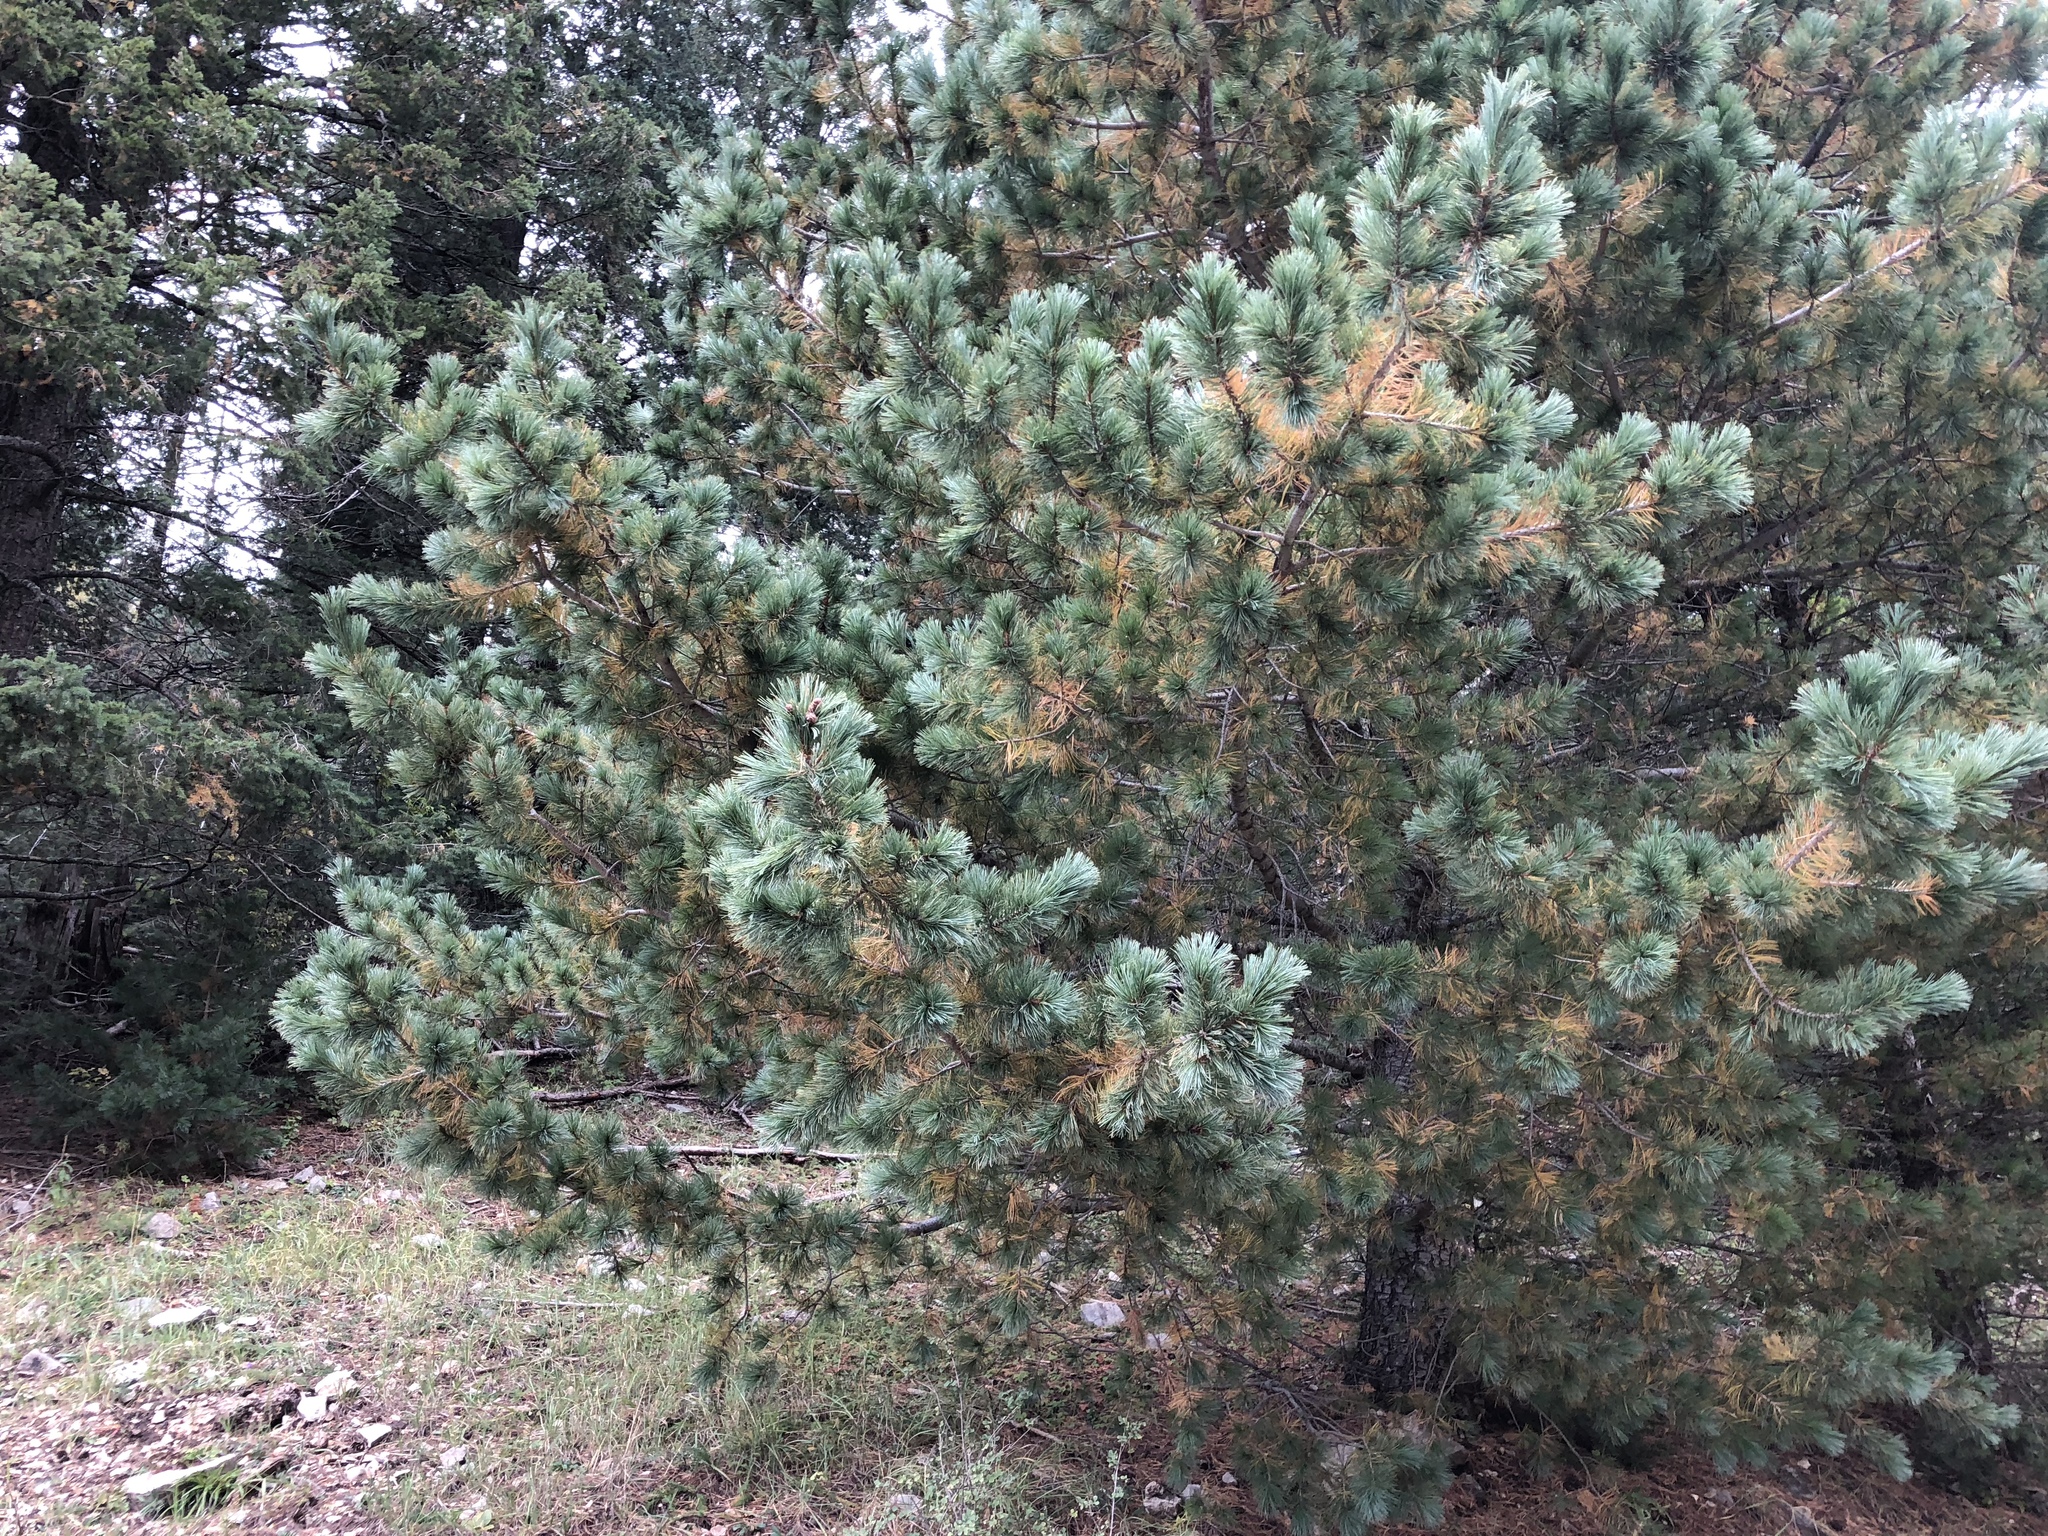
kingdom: Plantae
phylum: Tracheophyta
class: Pinopsida
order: Pinales
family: Pinaceae
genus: Pinus
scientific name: Pinus strobiformis
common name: Southwestern white pine
